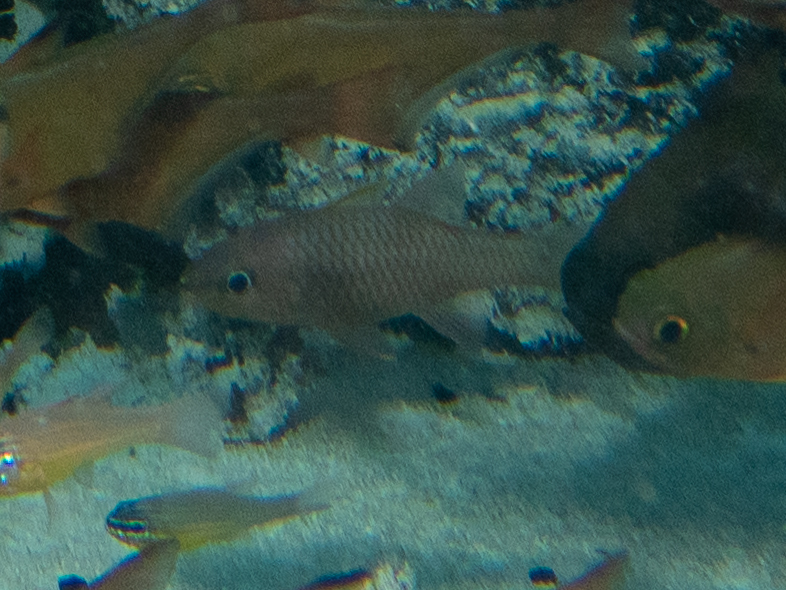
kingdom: Animalia
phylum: Chordata
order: Perciformes
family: Apogonidae
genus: Pristiapogon
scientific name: Pristiapogon kallopterus
